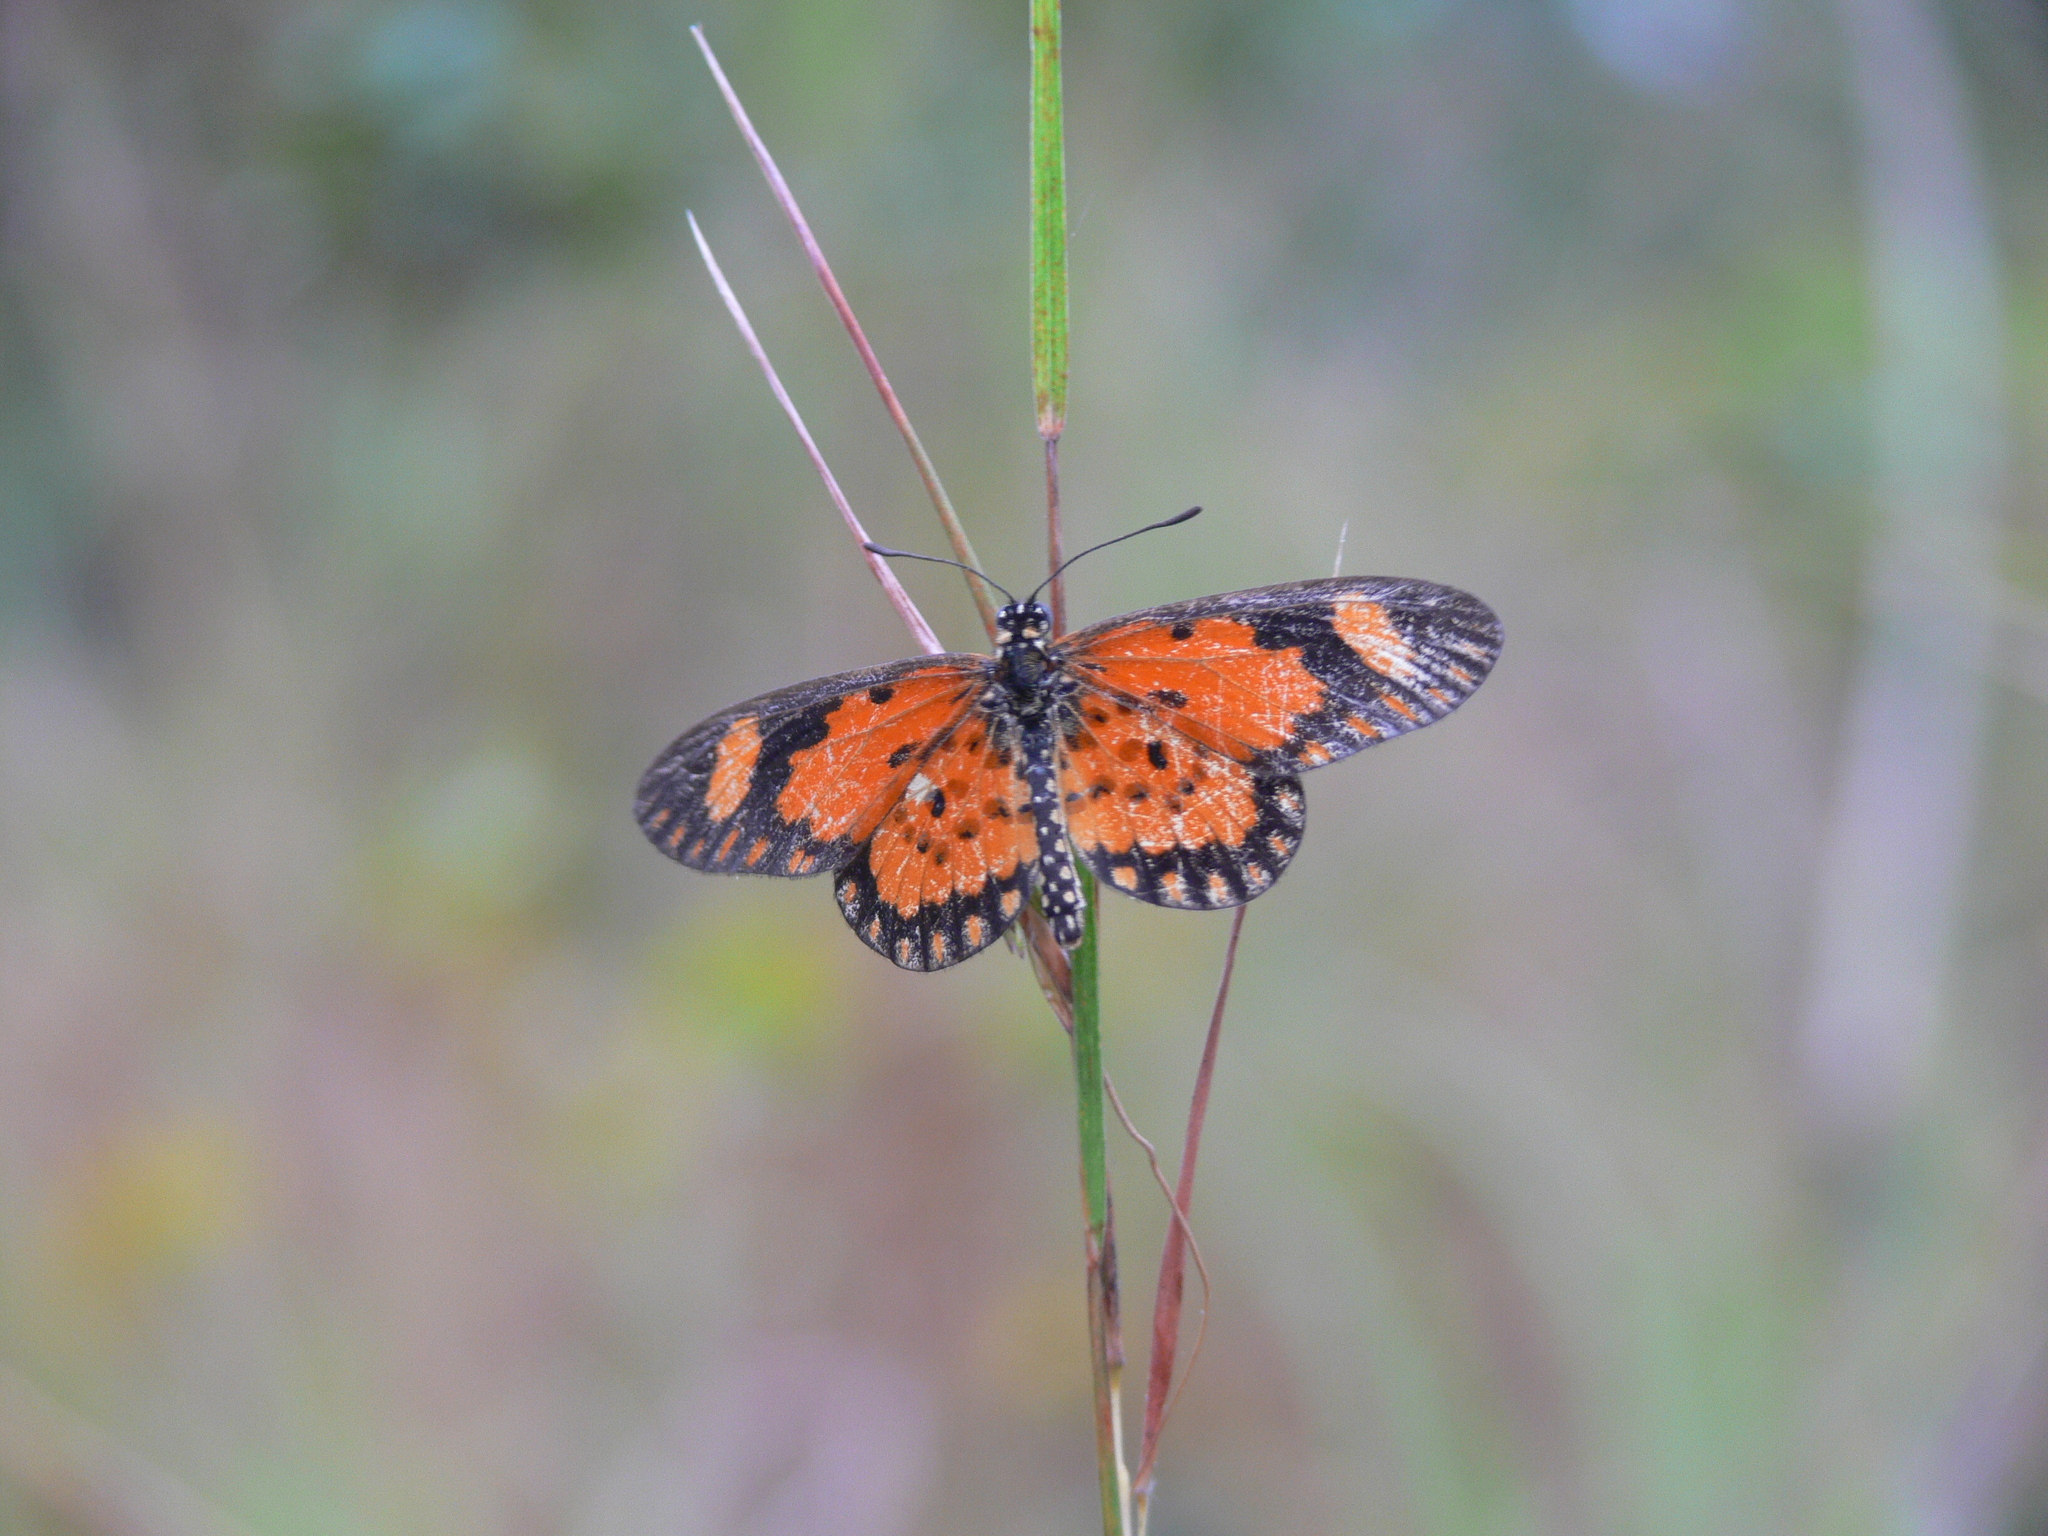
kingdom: Animalia
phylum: Arthropoda
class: Insecta
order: Lepidoptera
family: Nymphalidae
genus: Acraea
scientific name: Acraea Telchinia serena
